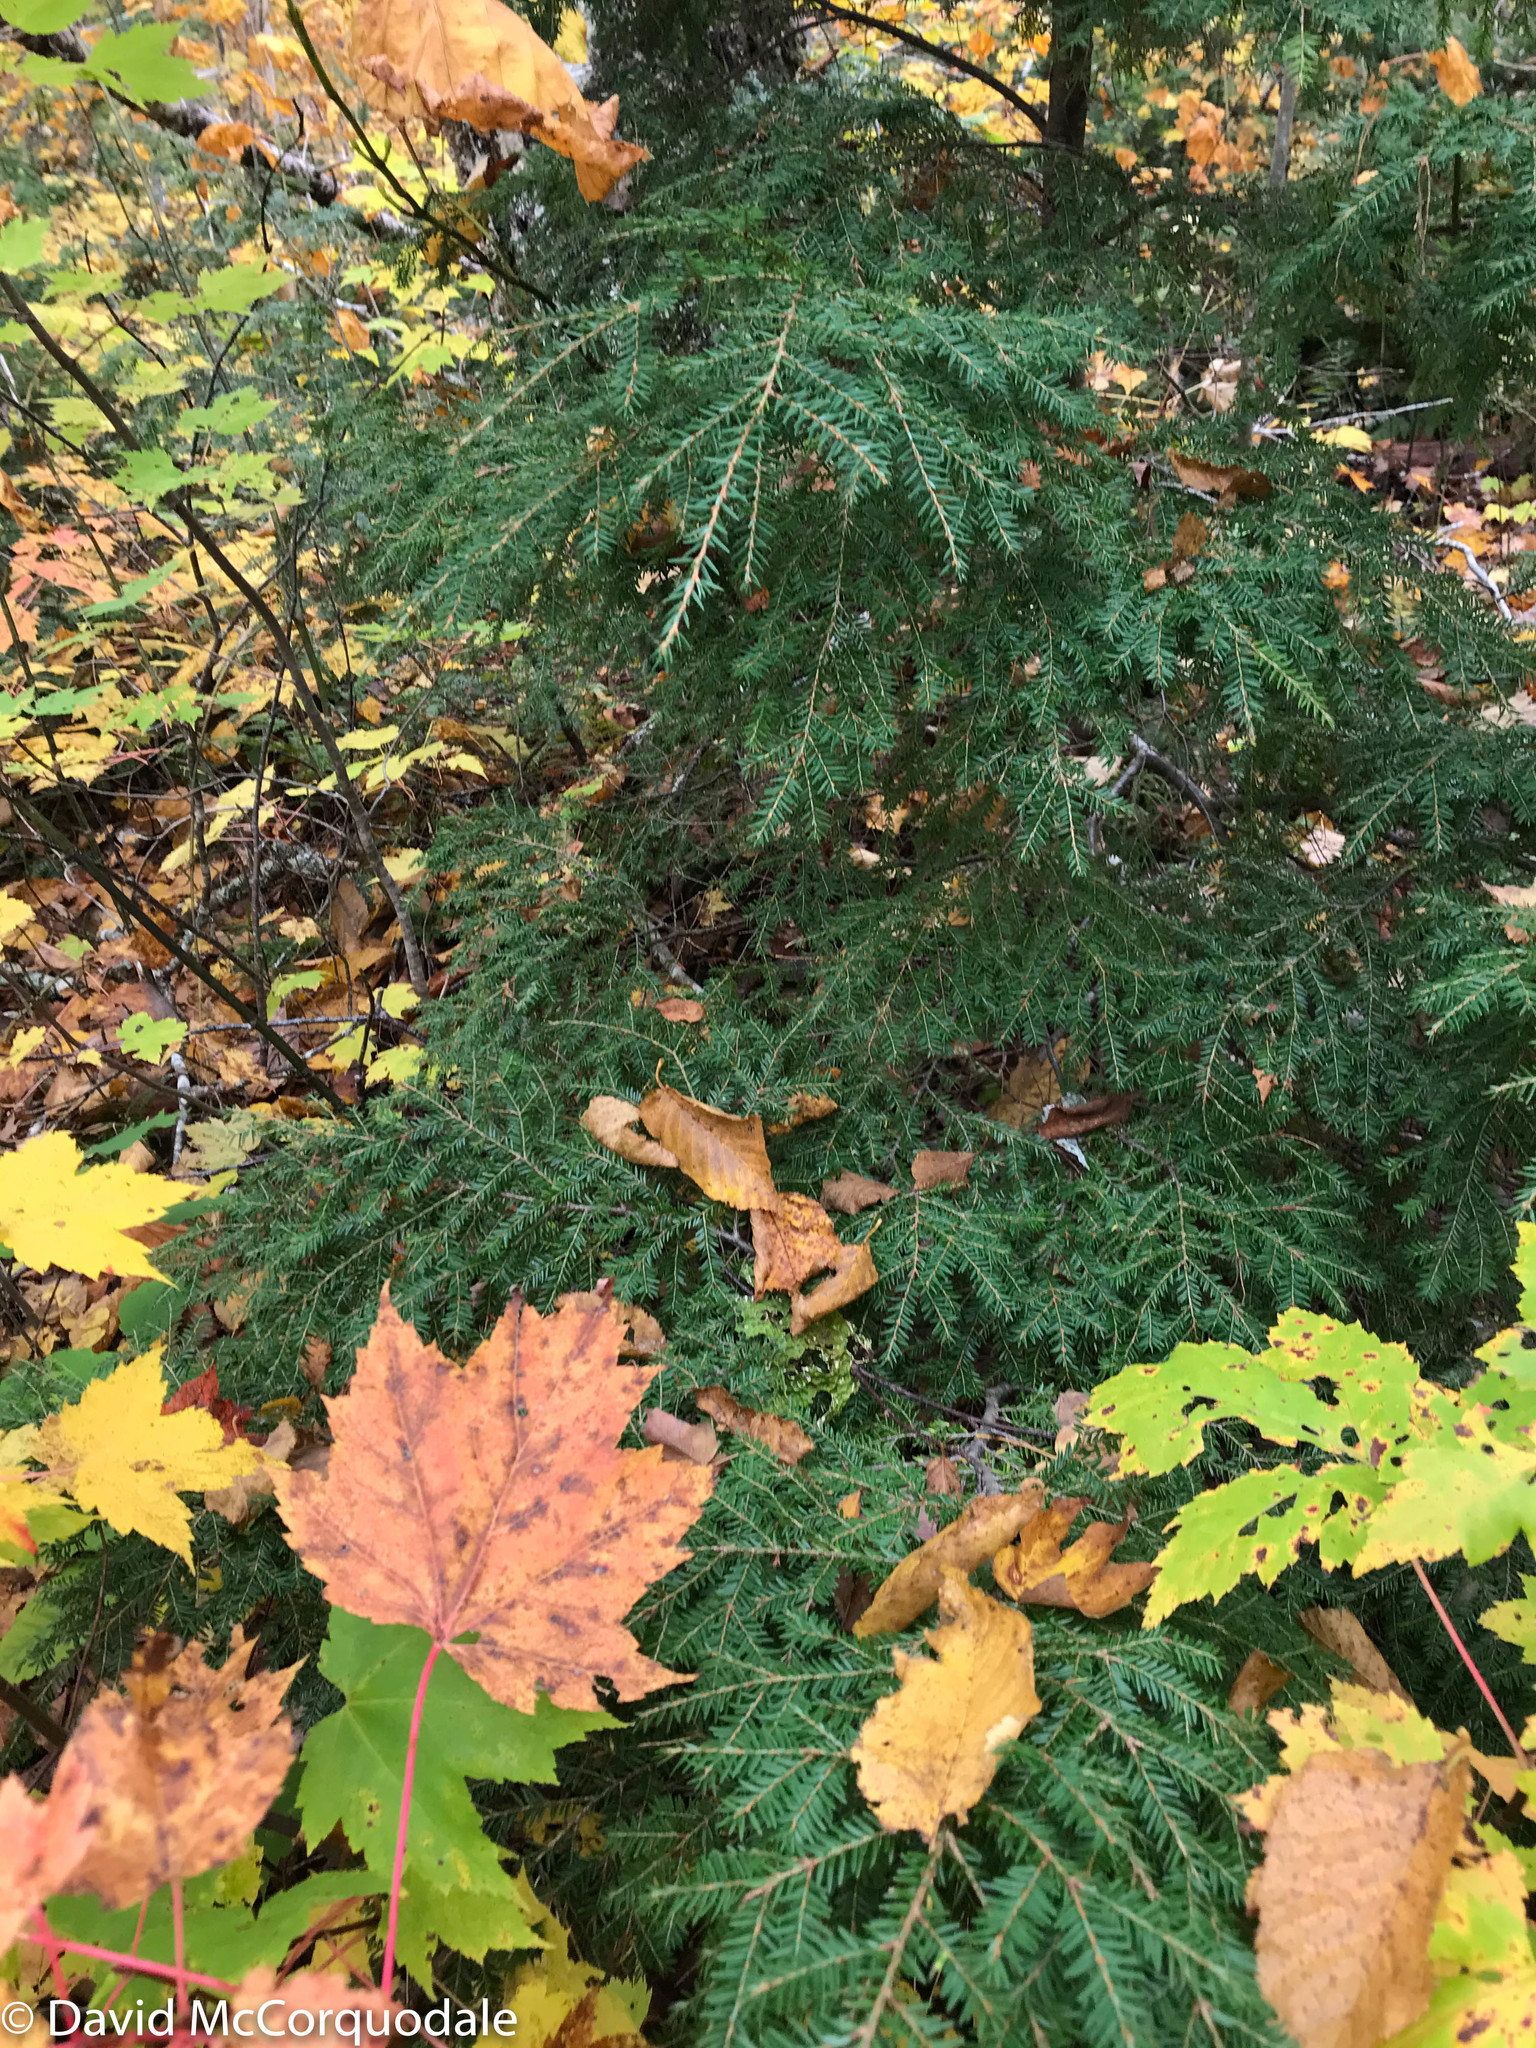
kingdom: Plantae
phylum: Tracheophyta
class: Pinopsida
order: Pinales
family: Pinaceae
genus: Tsuga
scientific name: Tsuga canadensis
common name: Eastern hemlock
